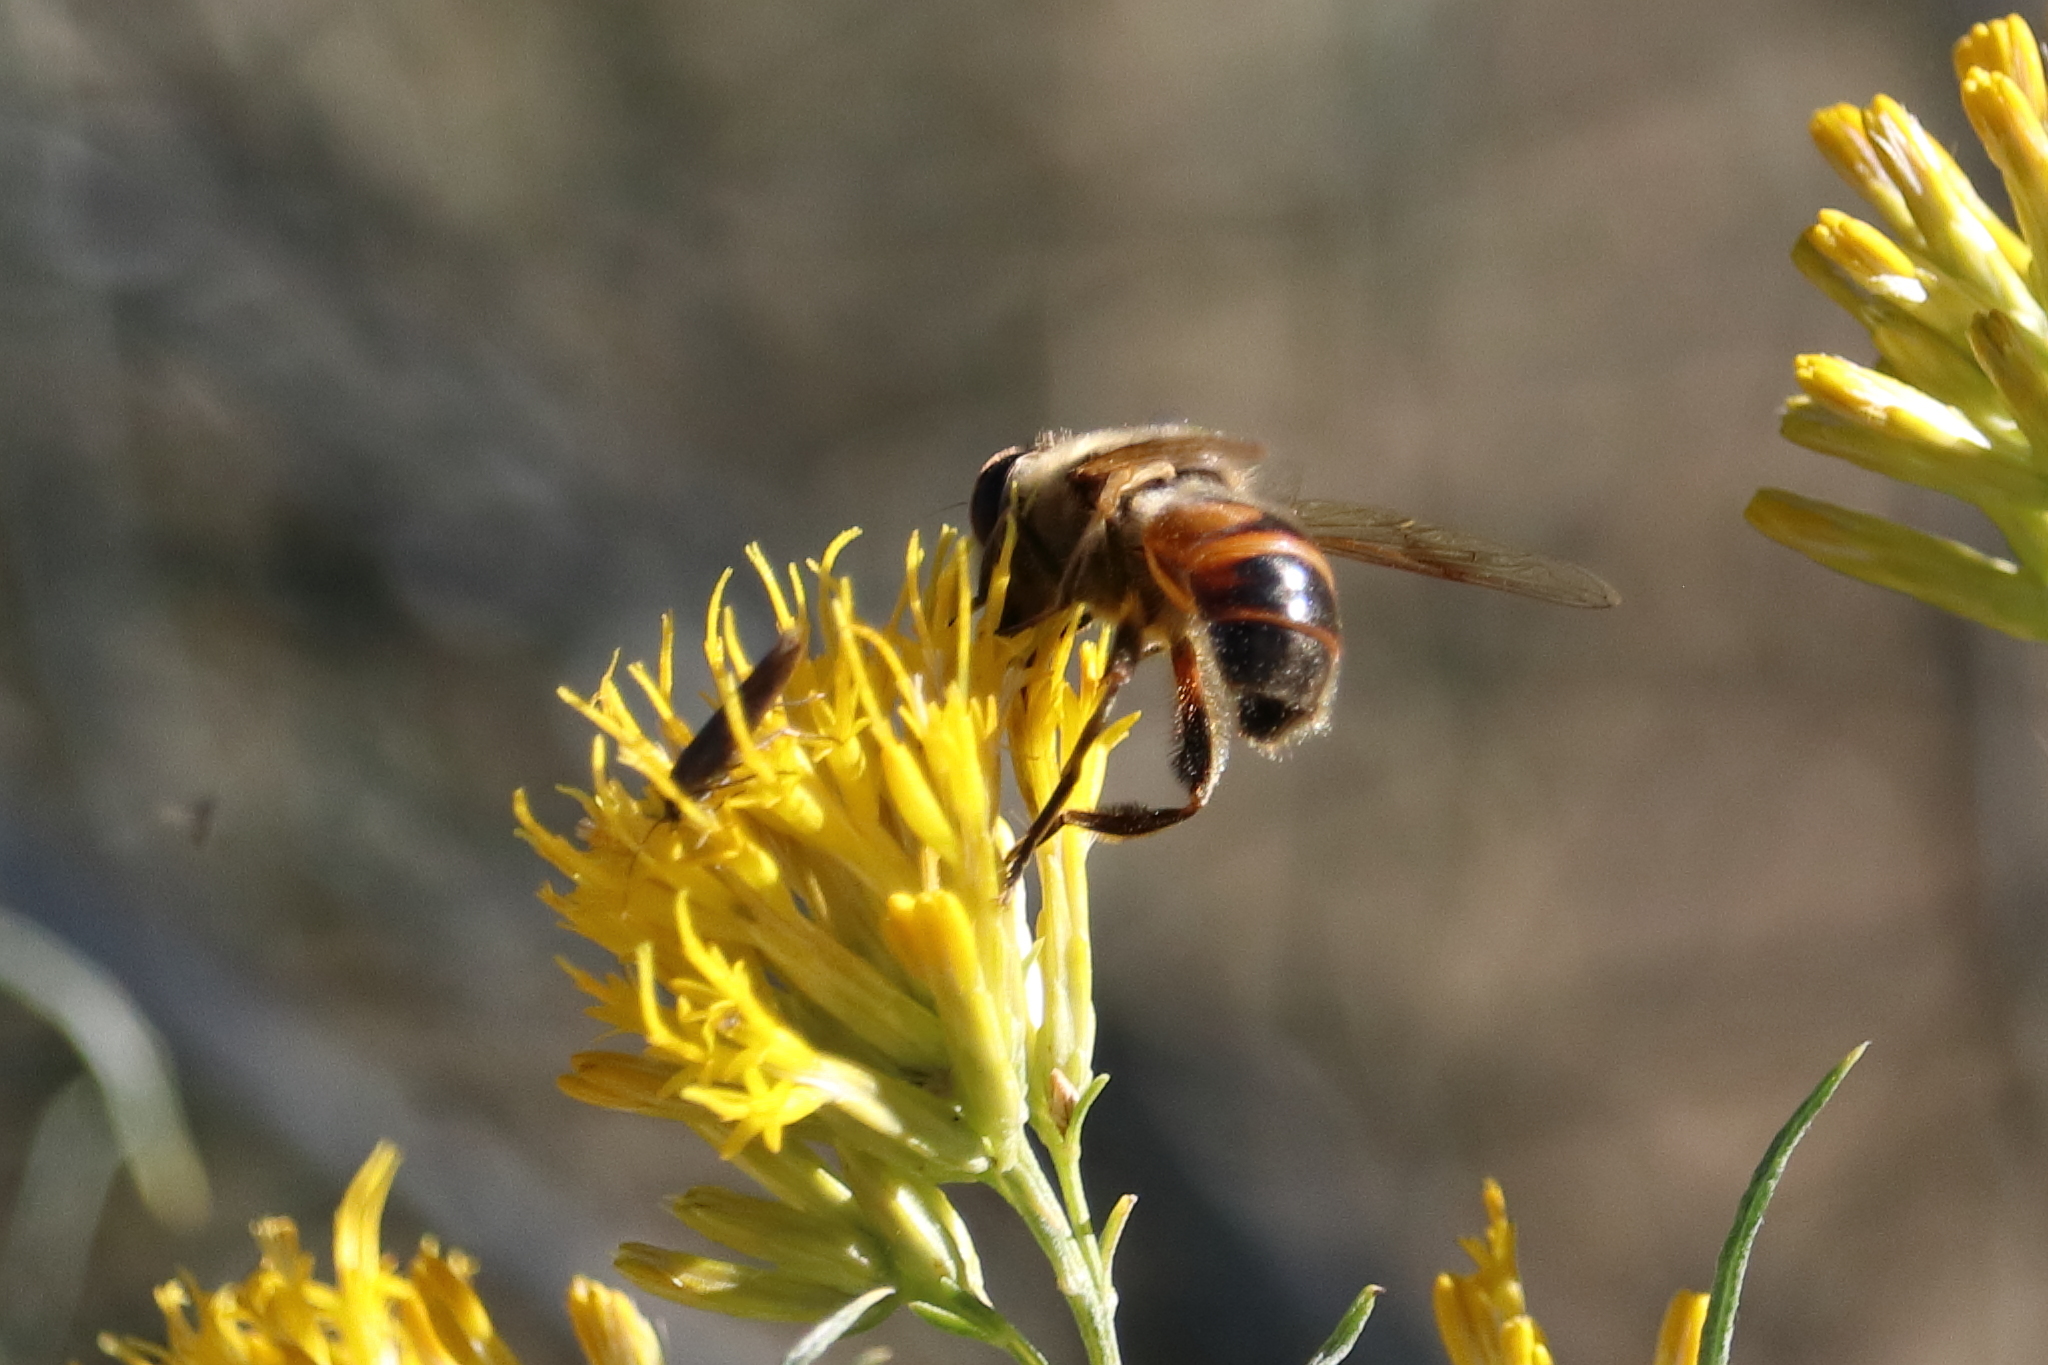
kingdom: Animalia
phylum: Arthropoda
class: Insecta
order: Diptera
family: Syrphidae
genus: Eristalis
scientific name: Eristalis tenax
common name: Drone fly
